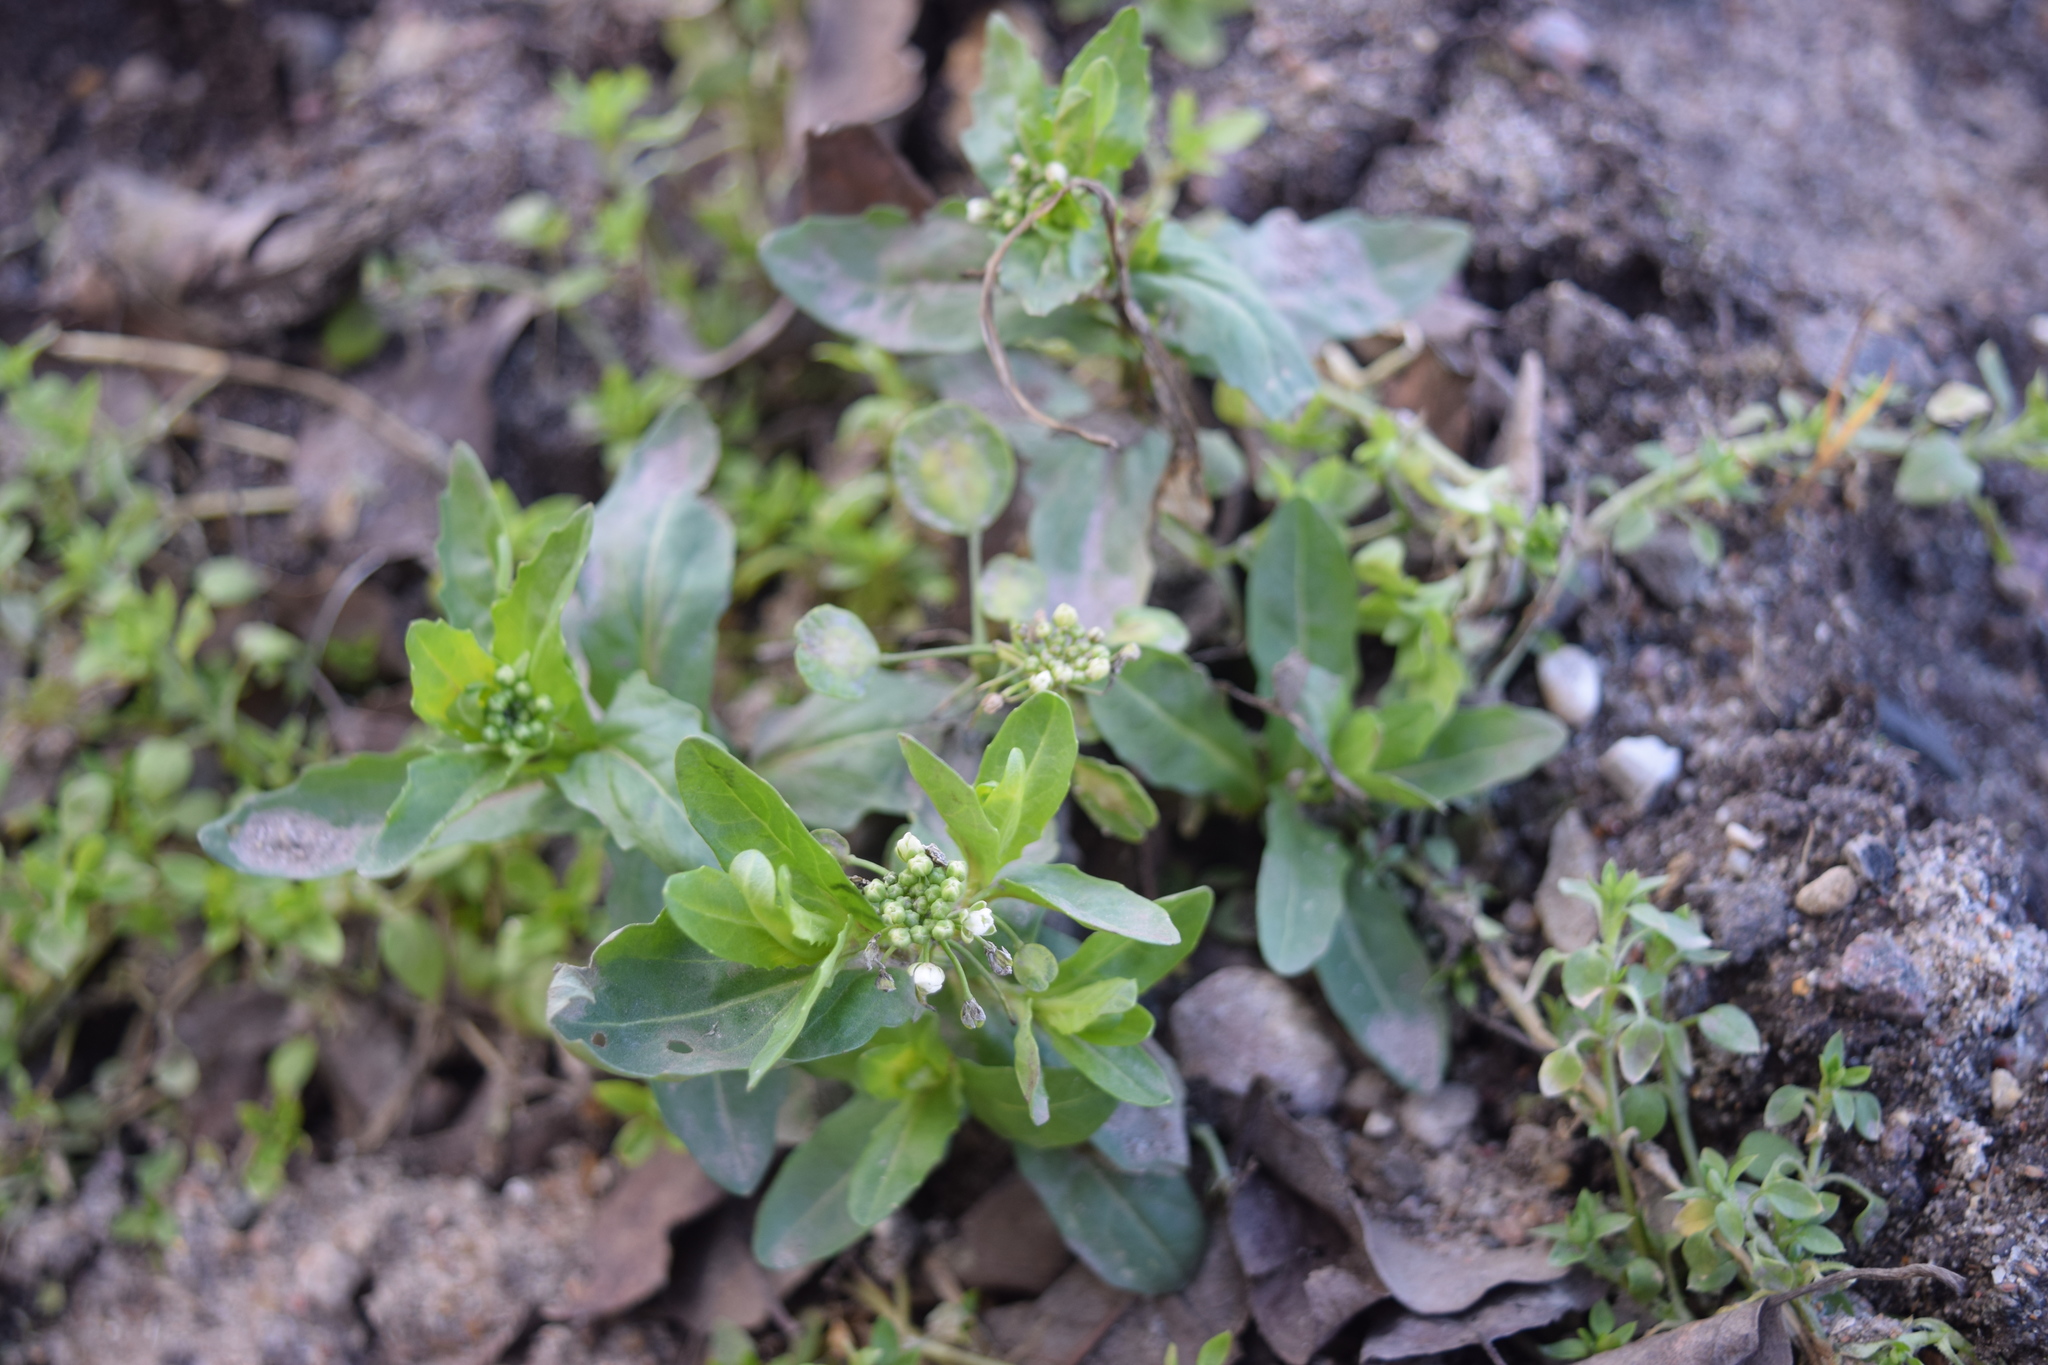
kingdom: Plantae
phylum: Tracheophyta
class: Magnoliopsida
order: Brassicales
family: Brassicaceae
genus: Thlaspi
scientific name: Thlaspi arvense
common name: Field pennycress
